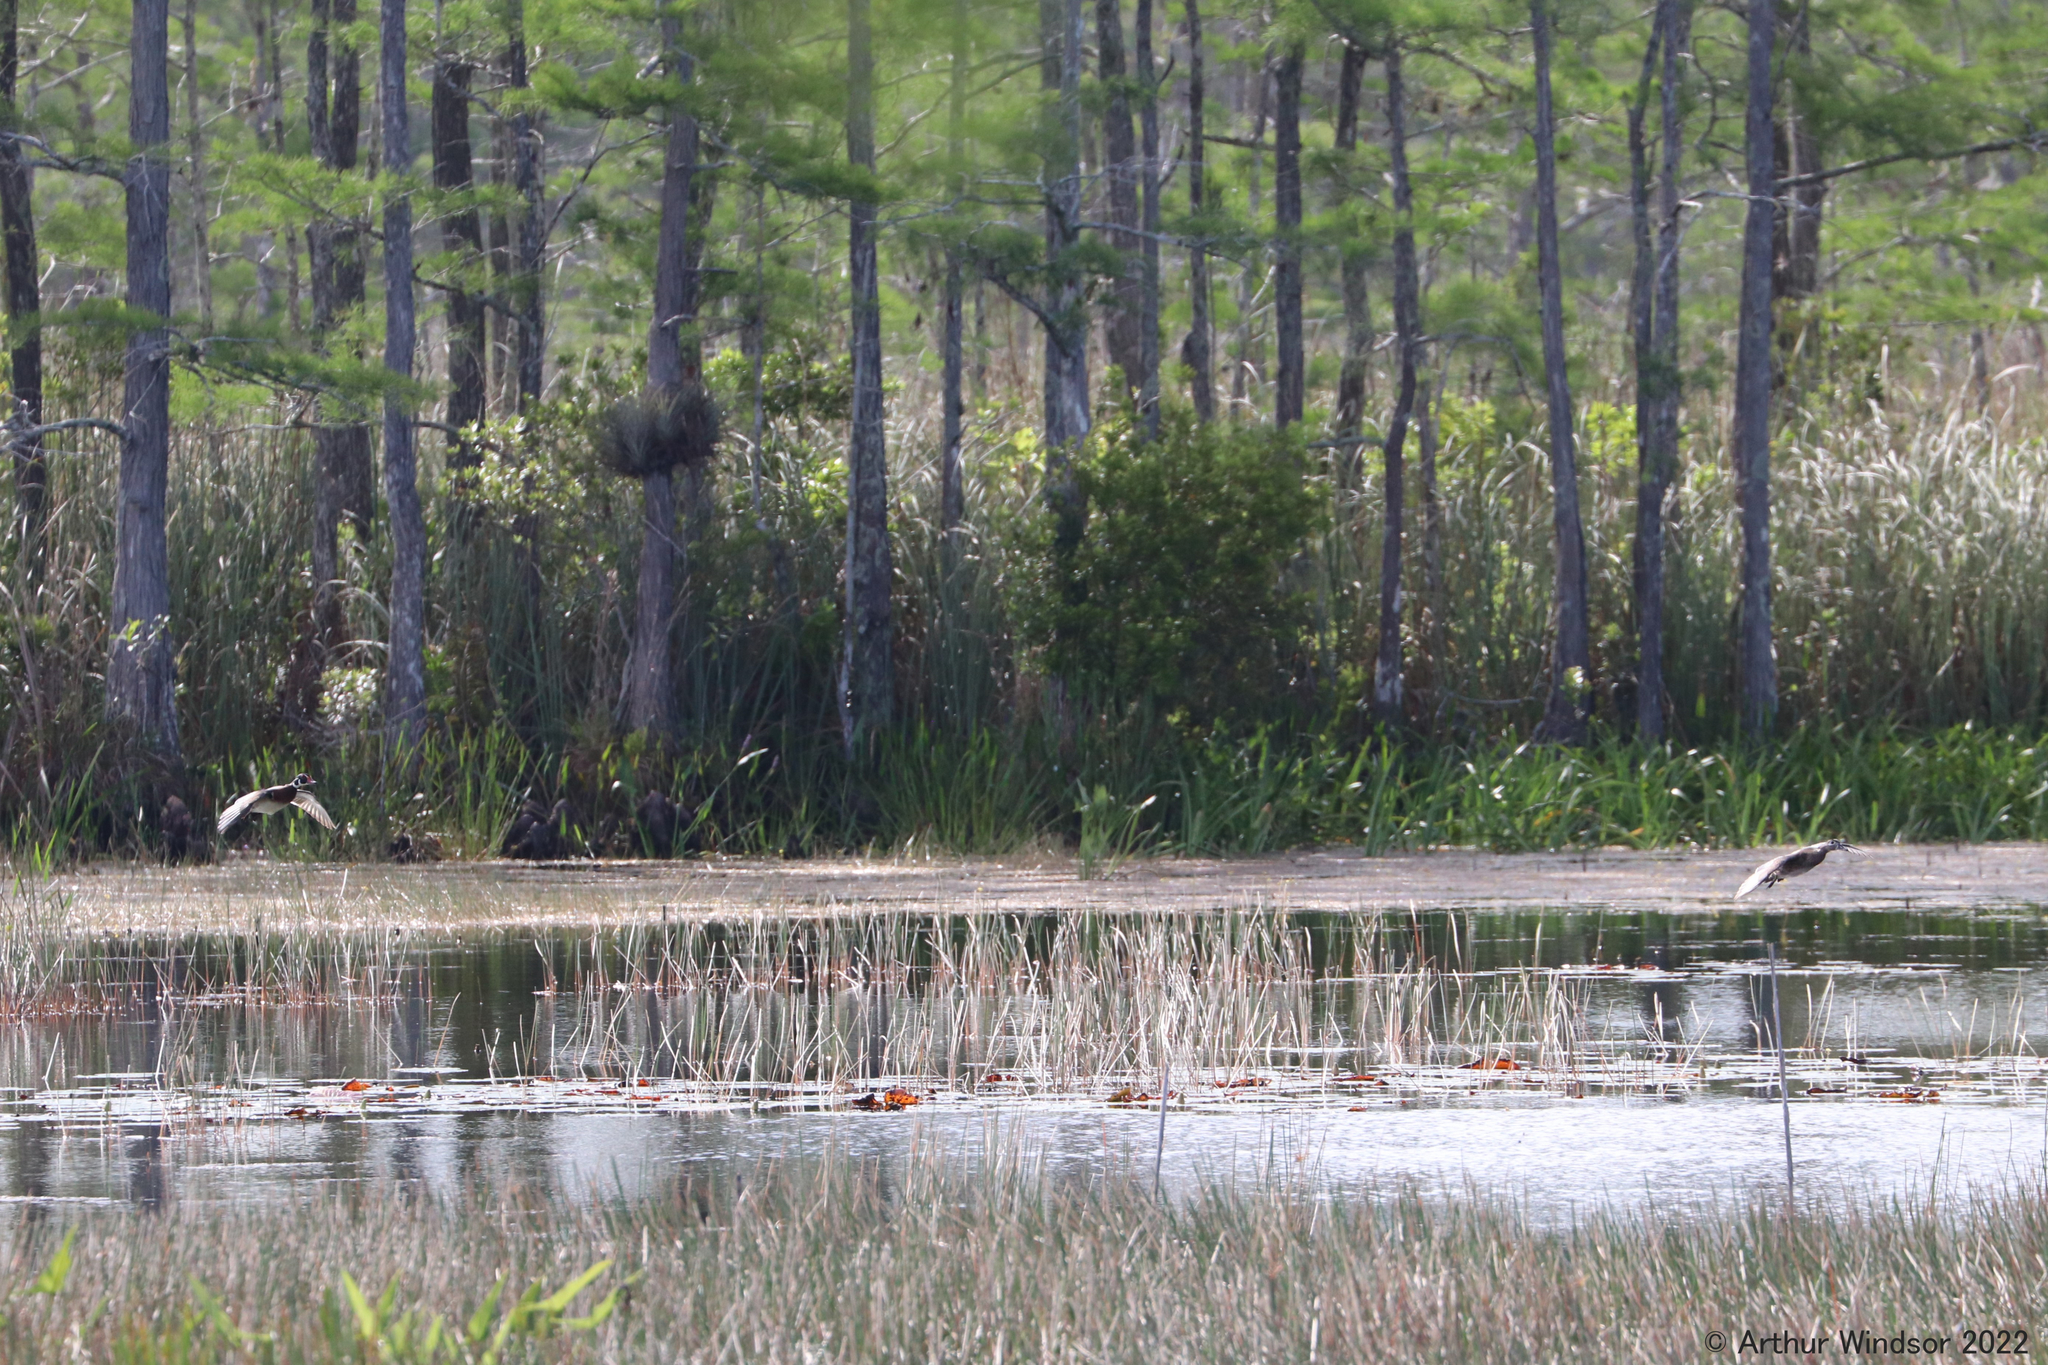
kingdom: Animalia
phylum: Chordata
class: Aves
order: Anseriformes
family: Anatidae
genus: Aix
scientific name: Aix sponsa
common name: Wood duck
